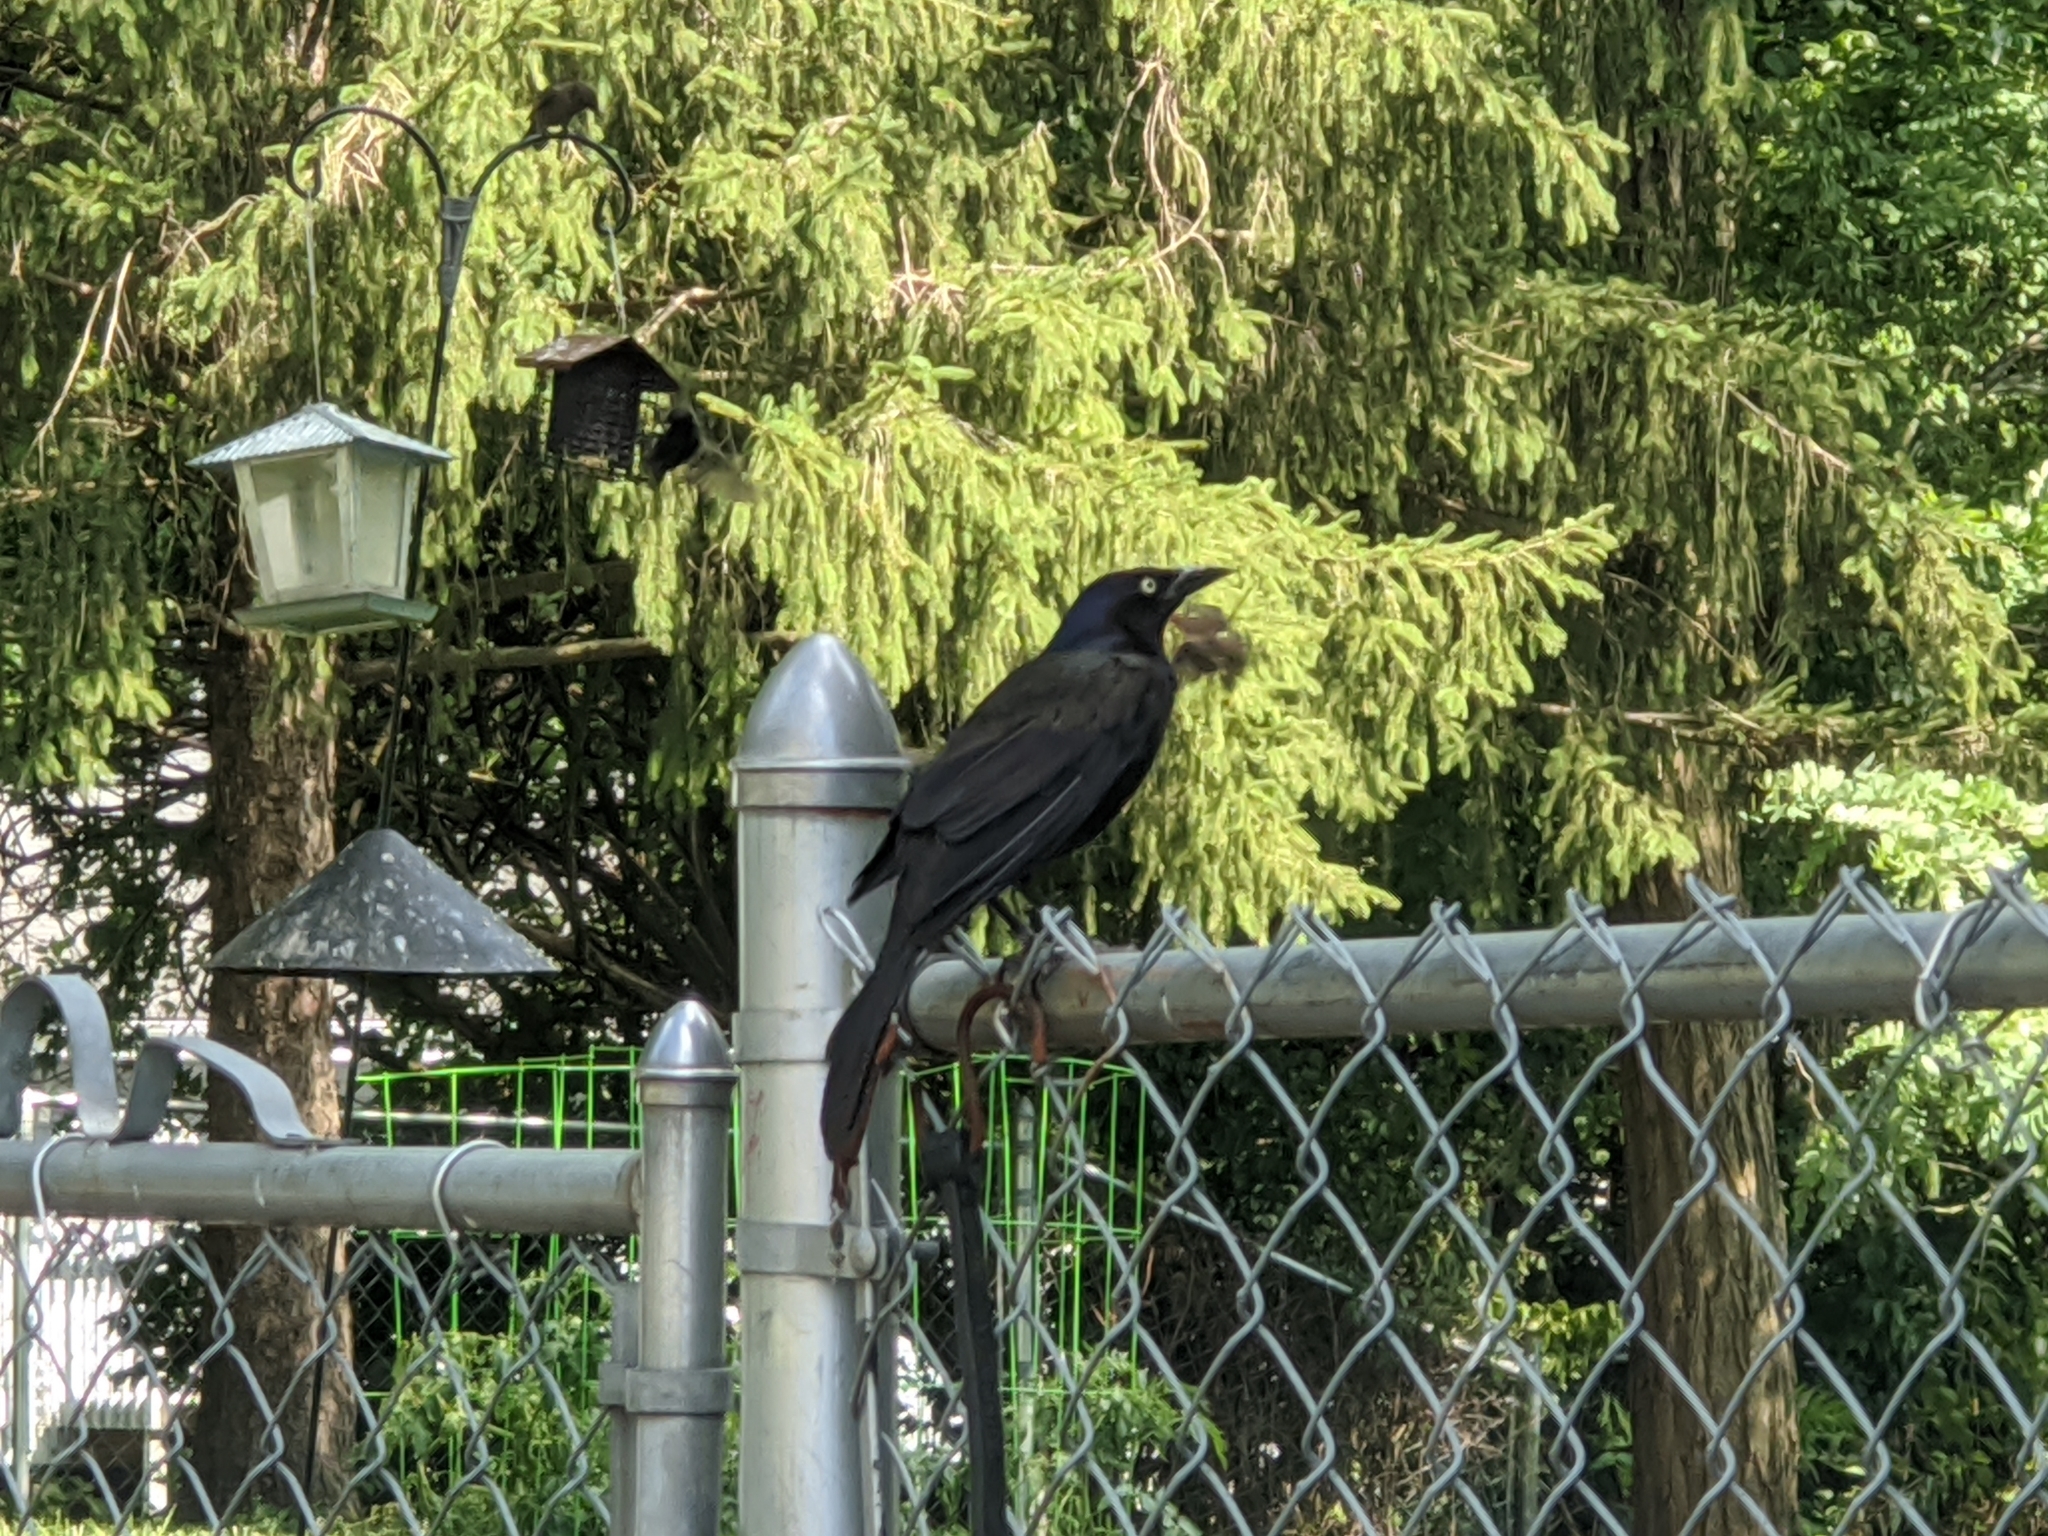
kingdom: Animalia
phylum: Chordata
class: Aves
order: Passeriformes
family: Icteridae
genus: Quiscalus
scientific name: Quiscalus quiscula
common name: Common grackle
